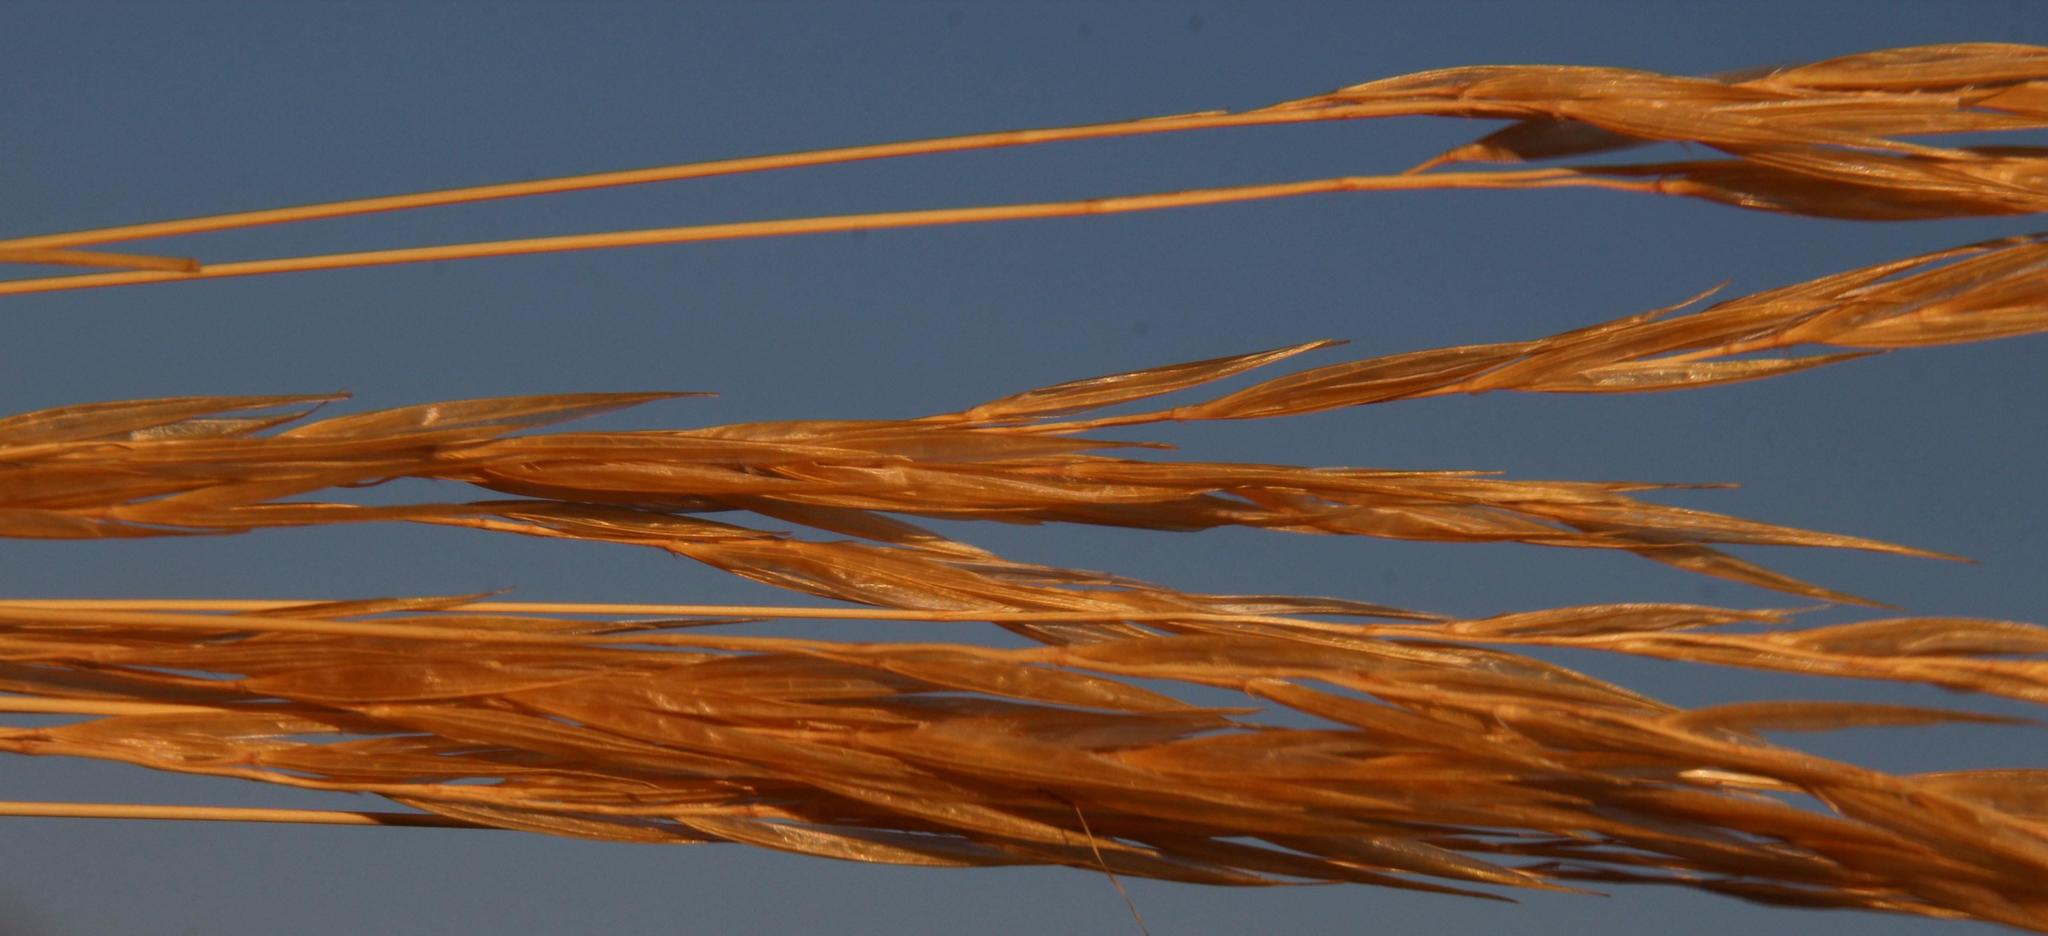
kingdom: Plantae
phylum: Tracheophyta
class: Liliopsida
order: Poales
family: Poaceae
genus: Tenaxia
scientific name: Tenaxia stricta
